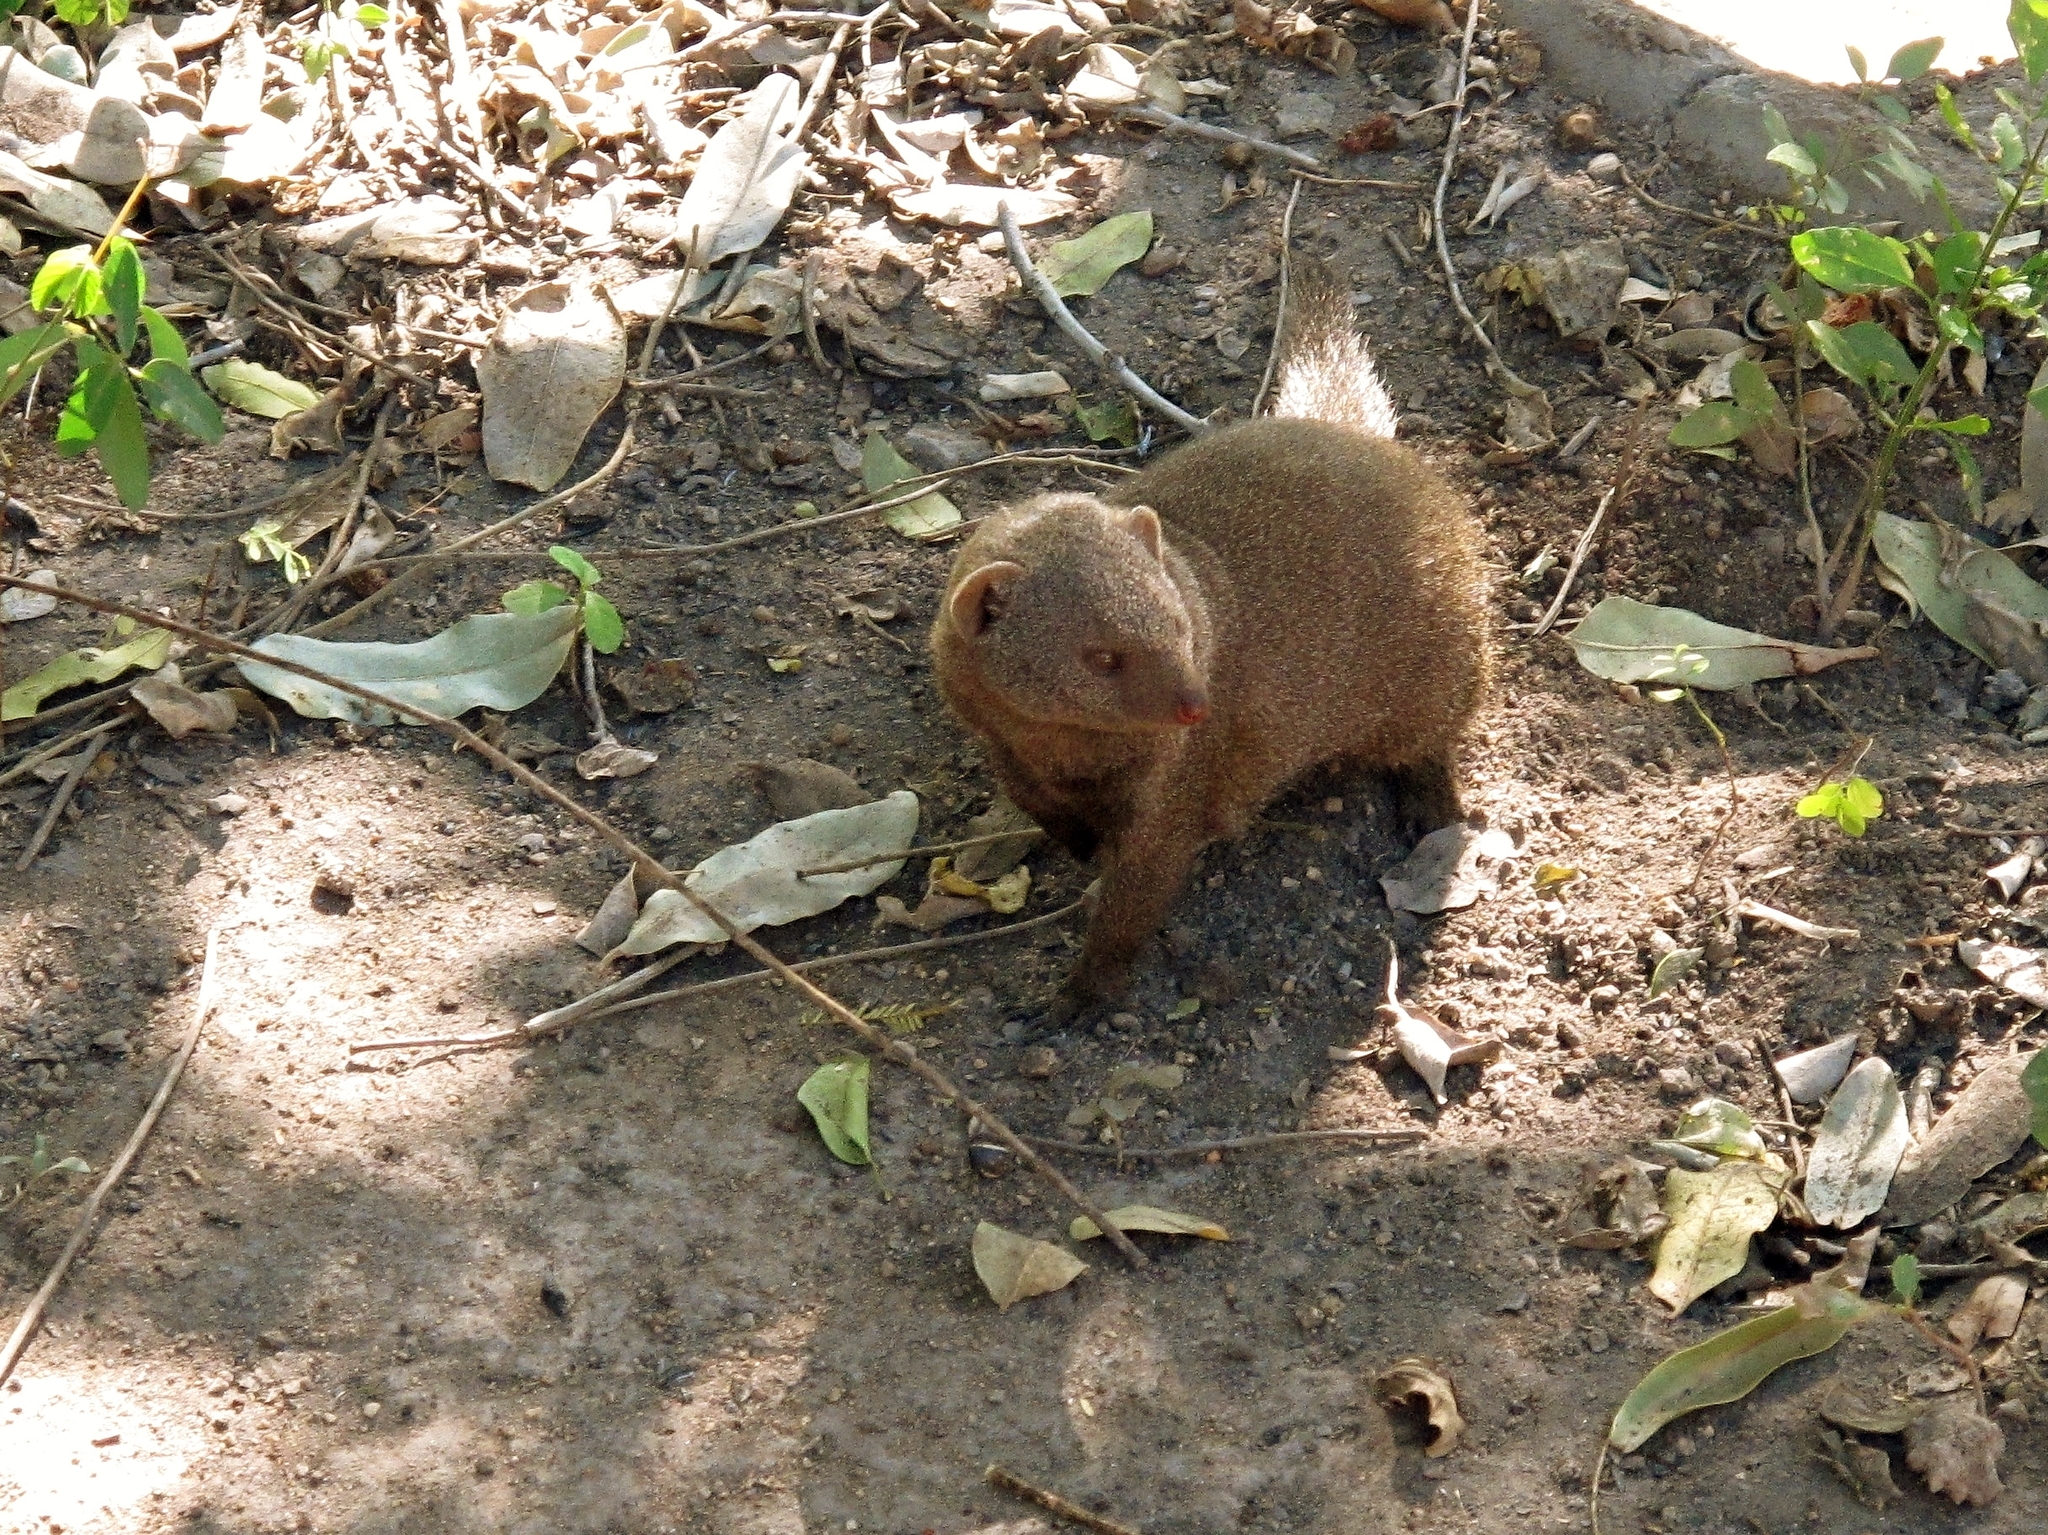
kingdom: Animalia
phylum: Chordata
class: Mammalia
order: Carnivora
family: Herpestidae
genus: Helogale
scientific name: Helogale parvula
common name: Common dwarf mongoose
